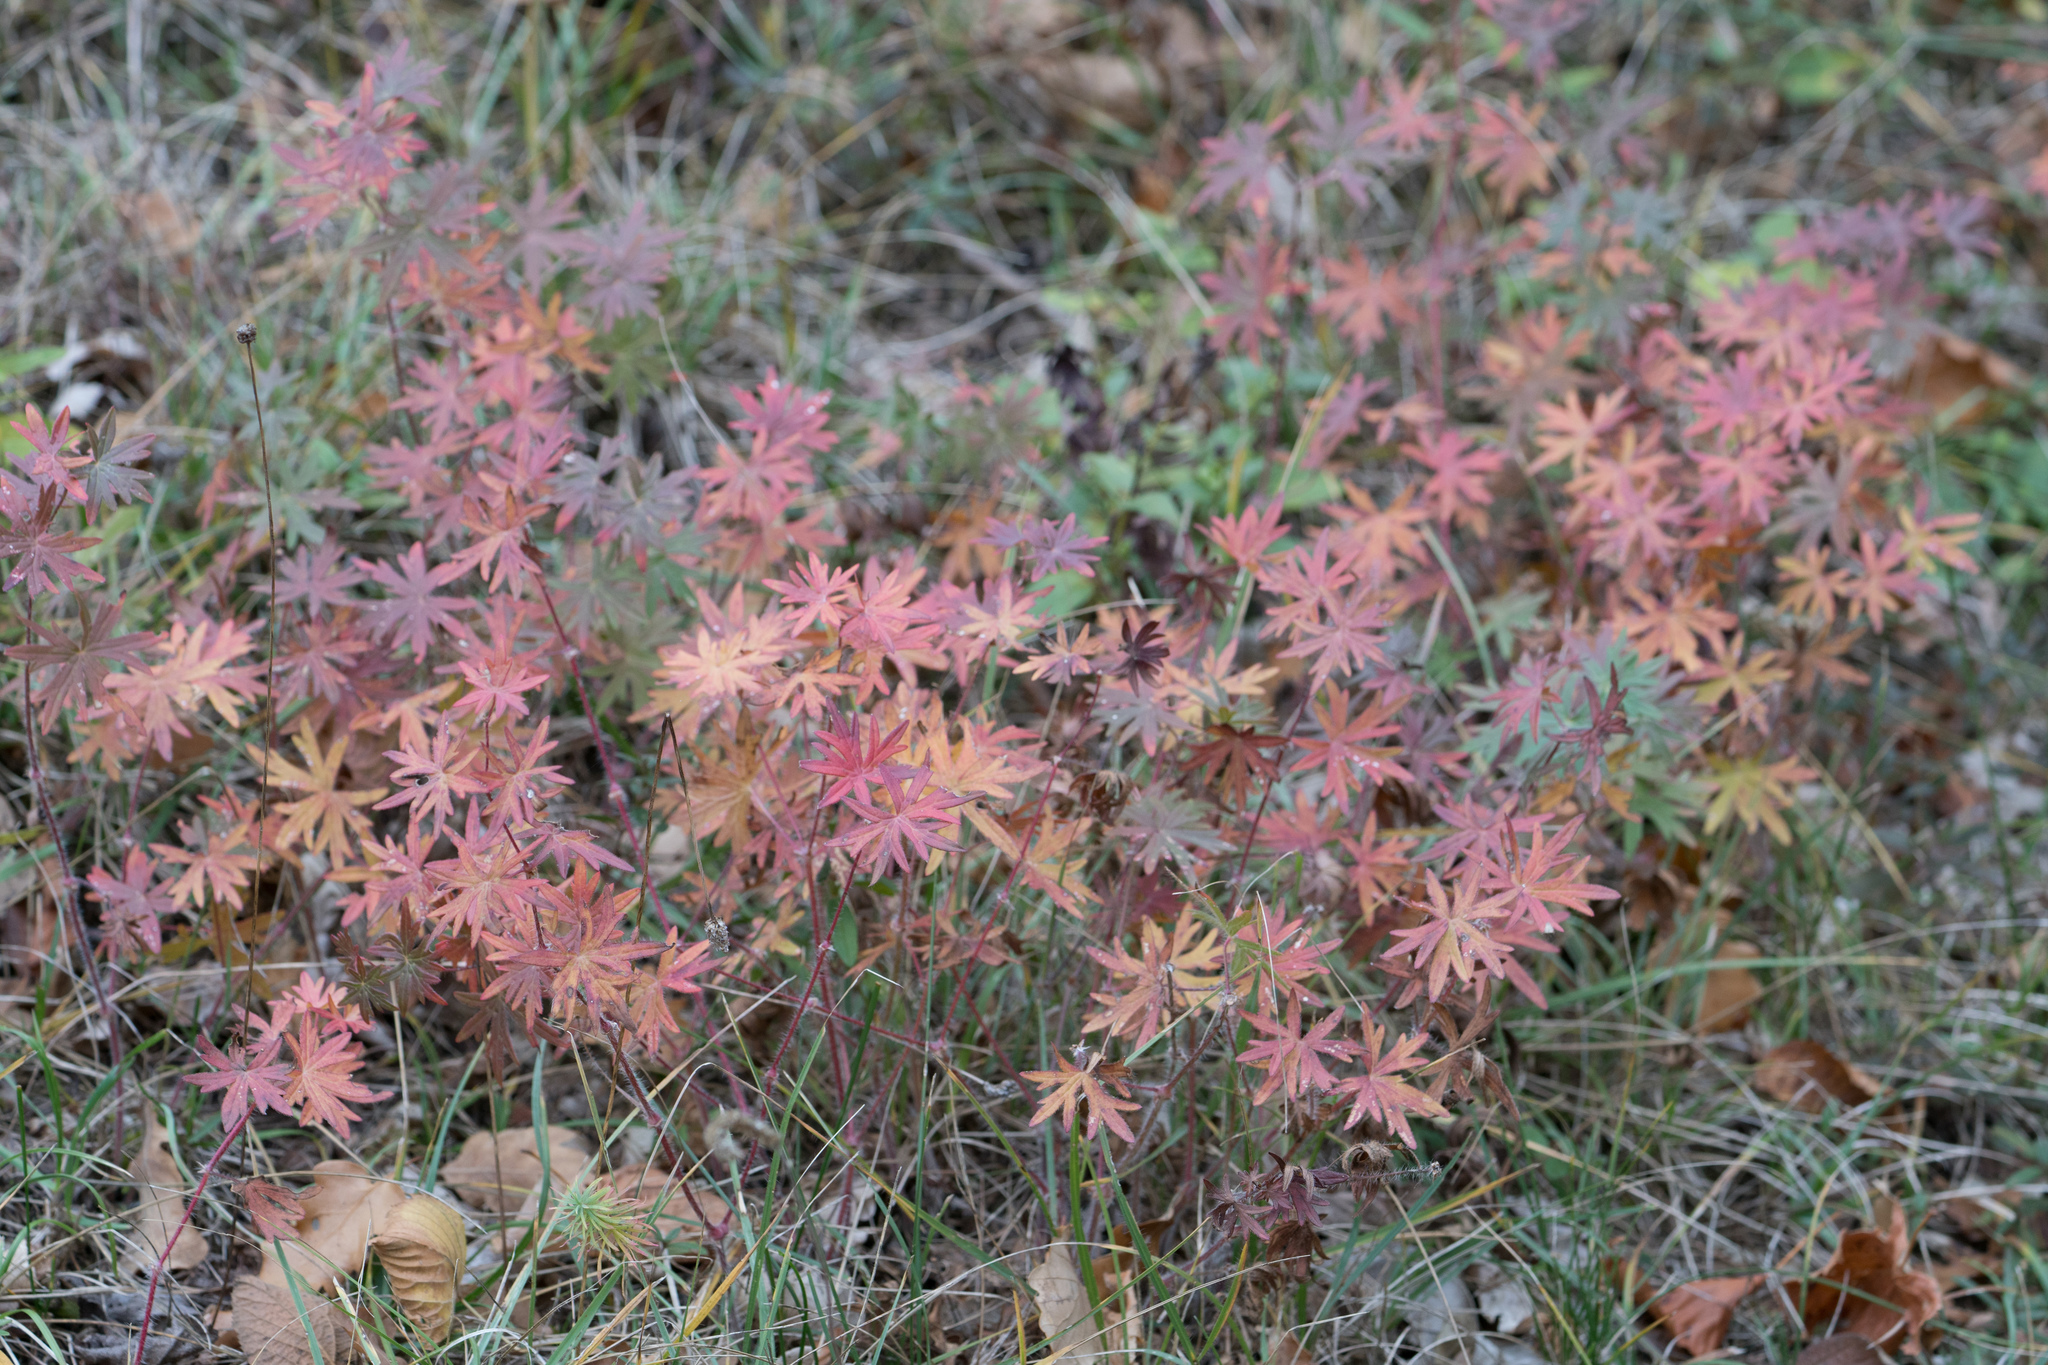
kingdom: Plantae
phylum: Tracheophyta
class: Magnoliopsida
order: Geraniales
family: Geraniaceae
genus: Geranium
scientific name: Geranium sanguineum
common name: Bloody crane's-bill
